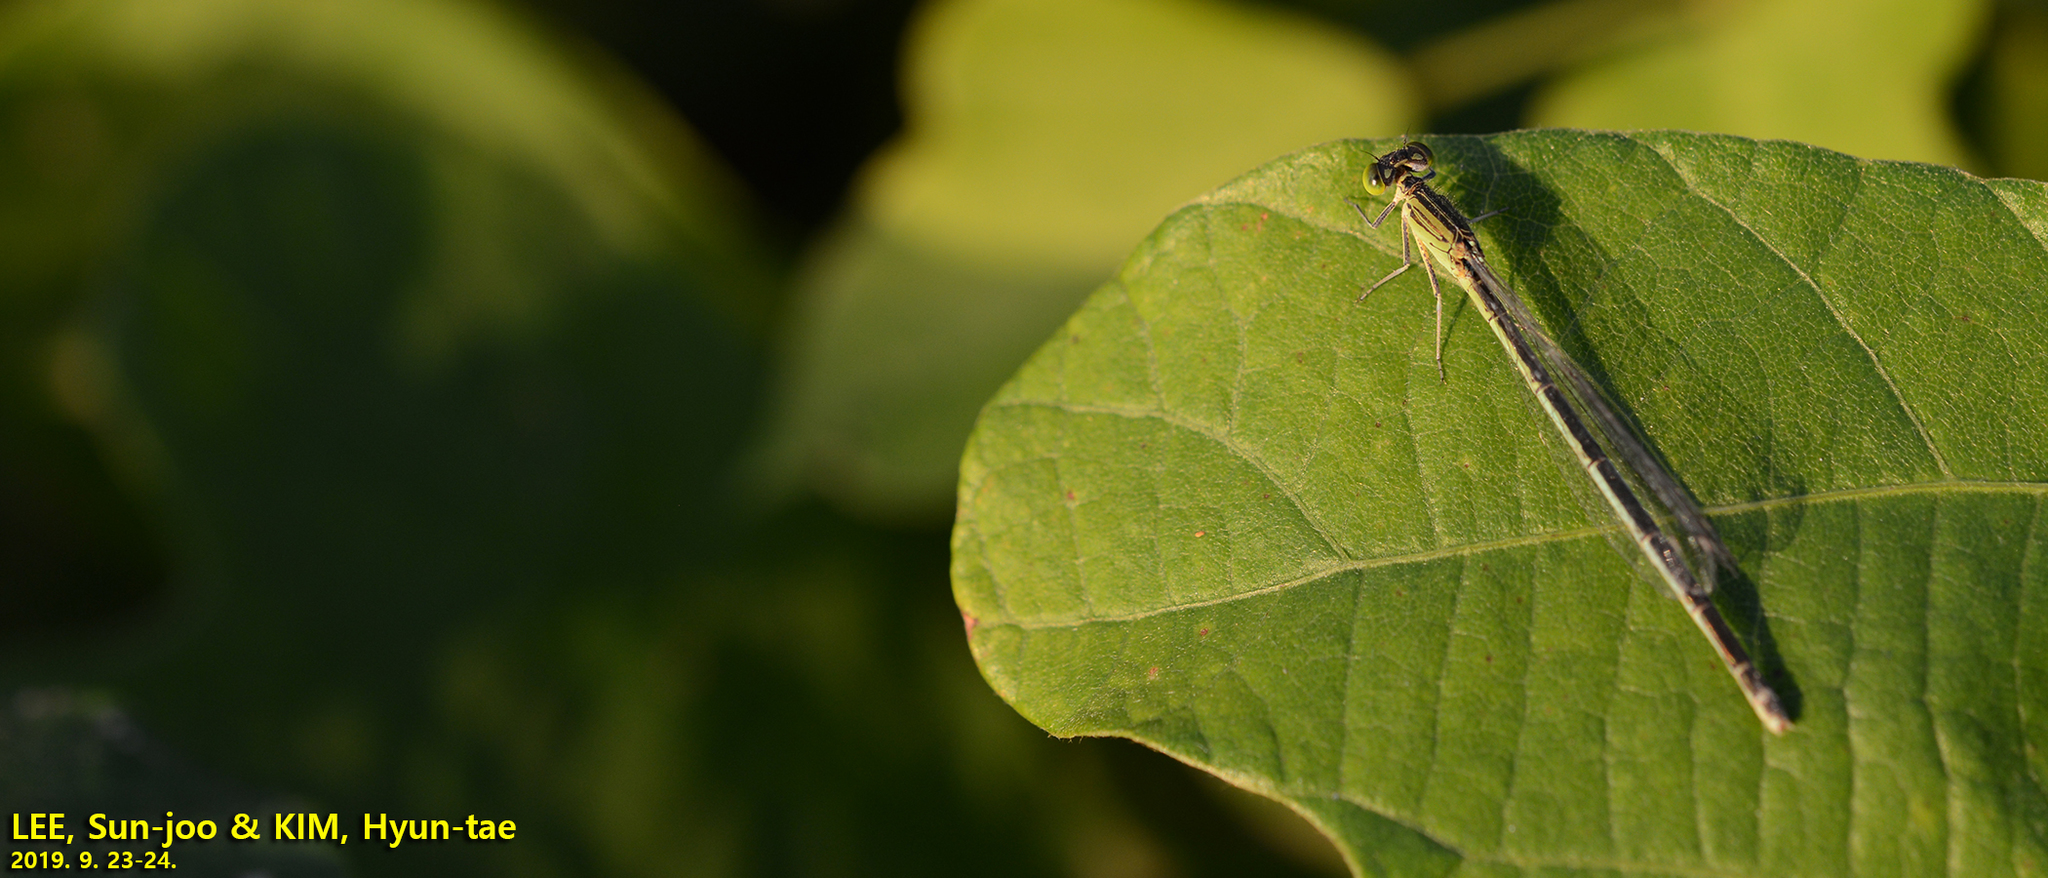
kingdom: Animalia
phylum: Arthropoda
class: Insecta
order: Odonata
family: Coenagrionidae
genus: Paracercion
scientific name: Paracercion v-nigrum
